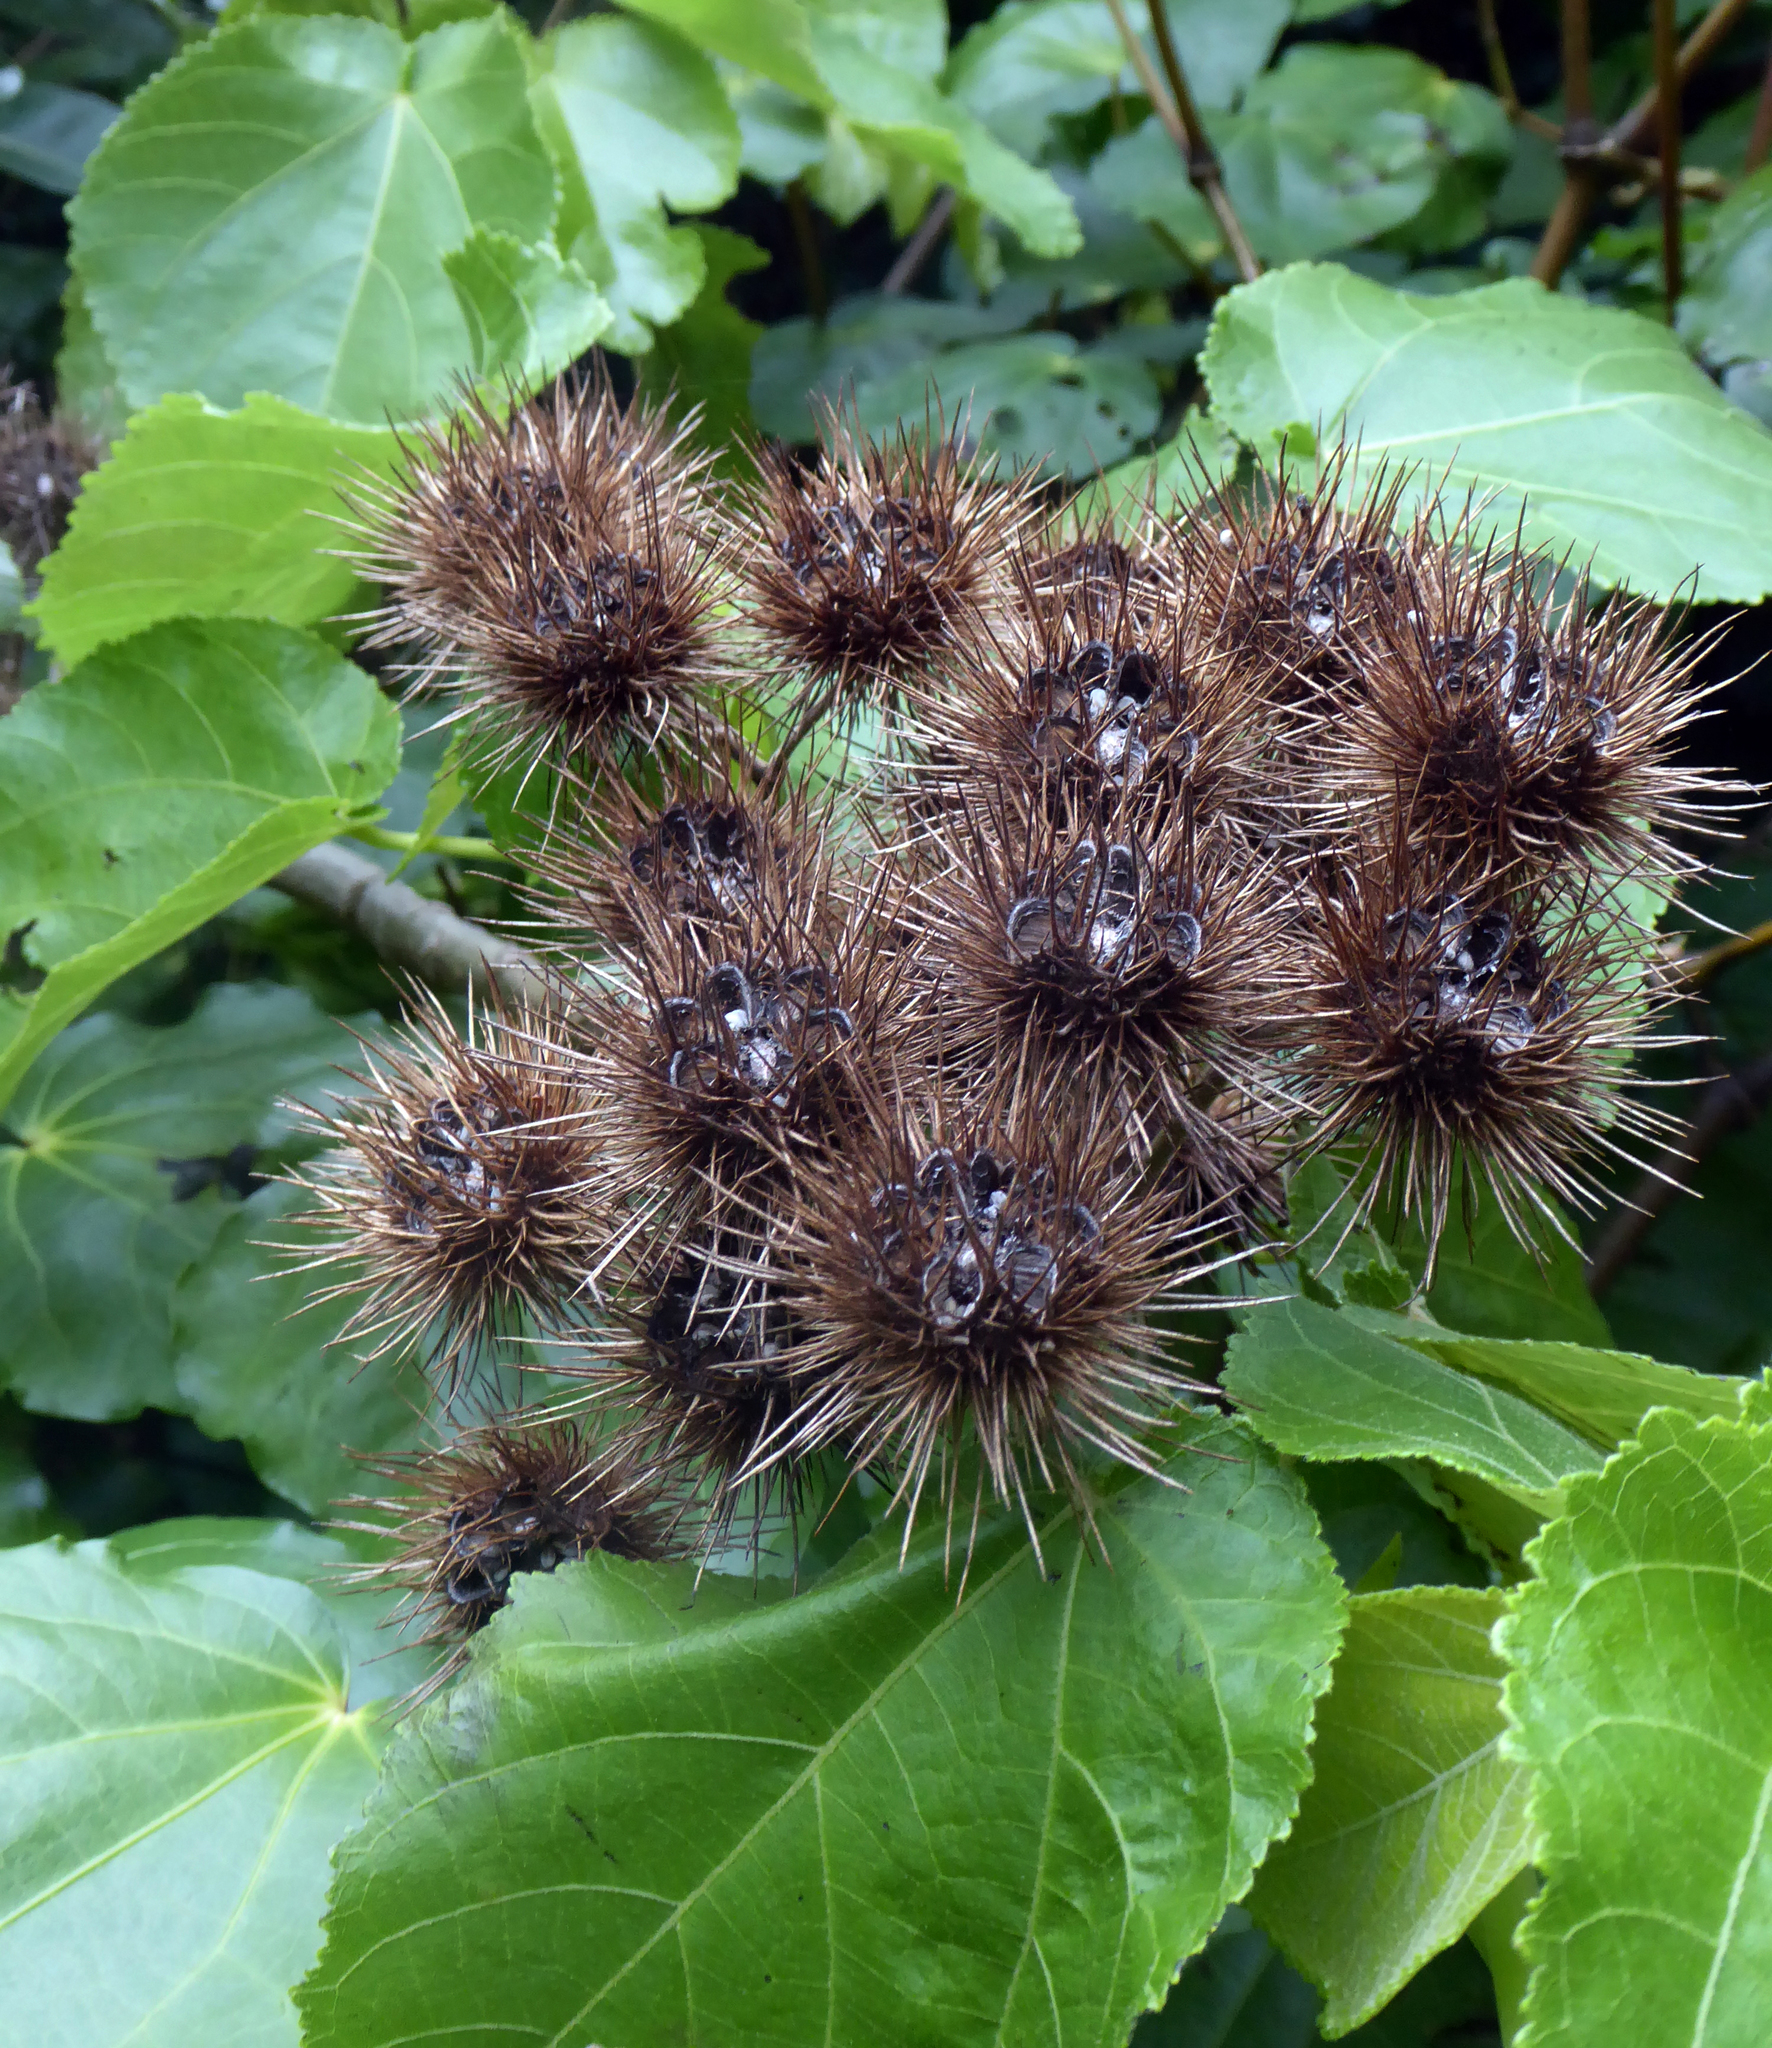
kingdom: Plantae
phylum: Tracheophyta
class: Magnoliopsida
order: Malvales
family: Malvaceae
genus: Entelea
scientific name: Entelea arborescens
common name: New zealand-mulberry
